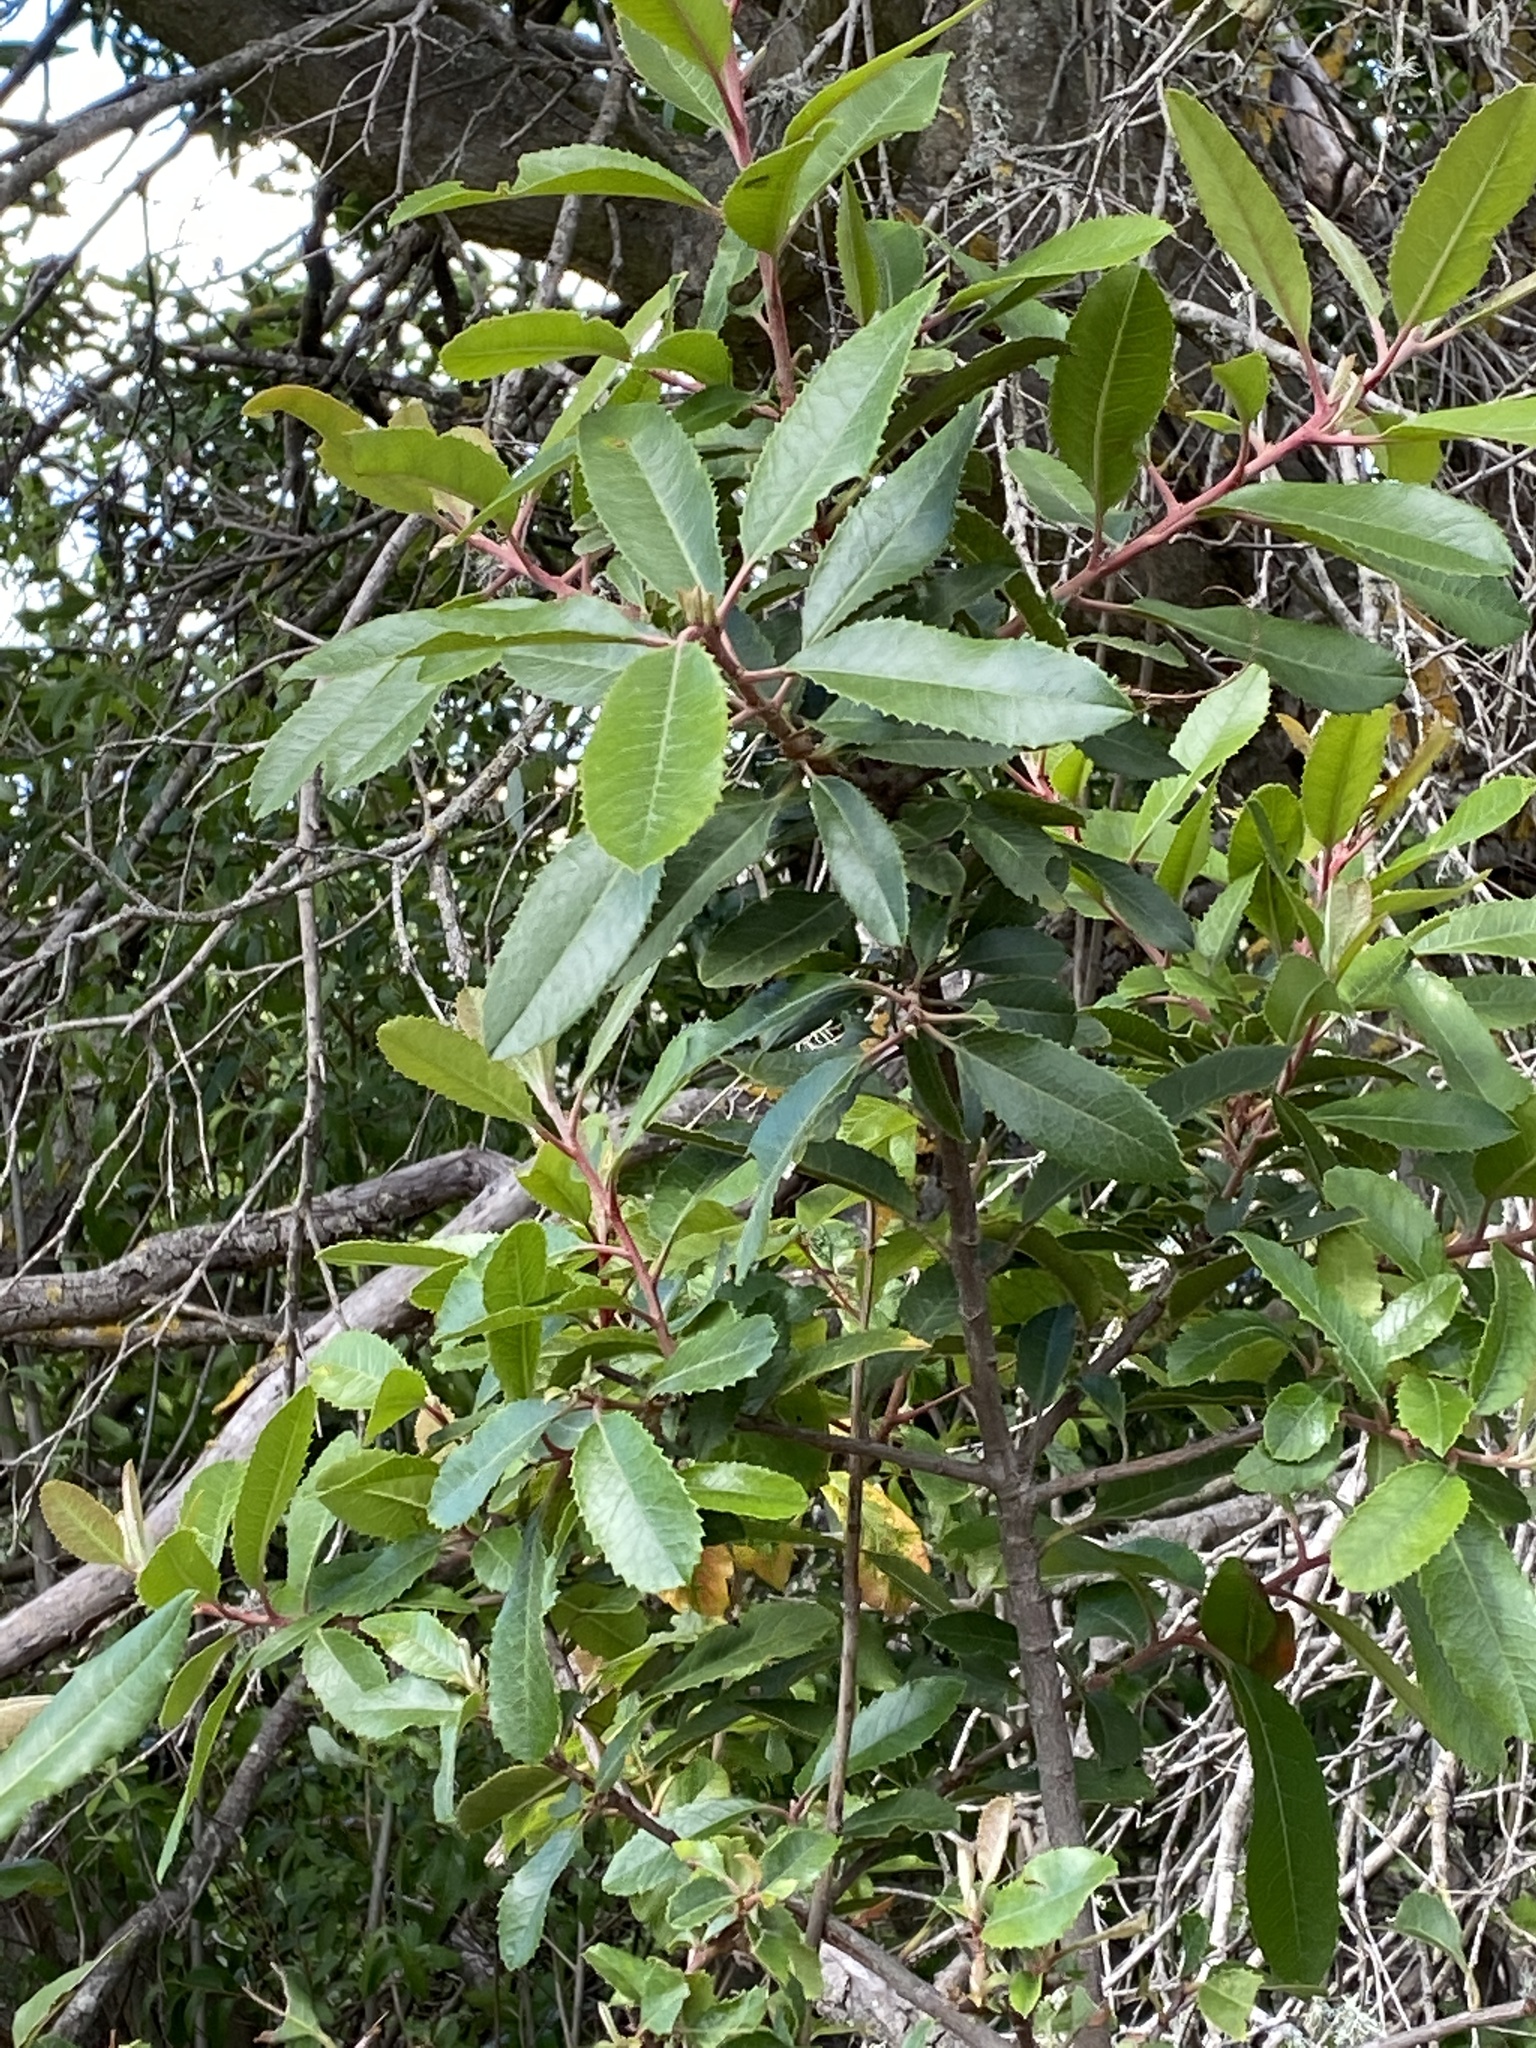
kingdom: Plantae
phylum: Tracheophyta
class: Magnoliopsida
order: Rosales
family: Rosaceae
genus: Heteromeles
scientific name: Heteromeles arbutifolia
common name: California-holly
